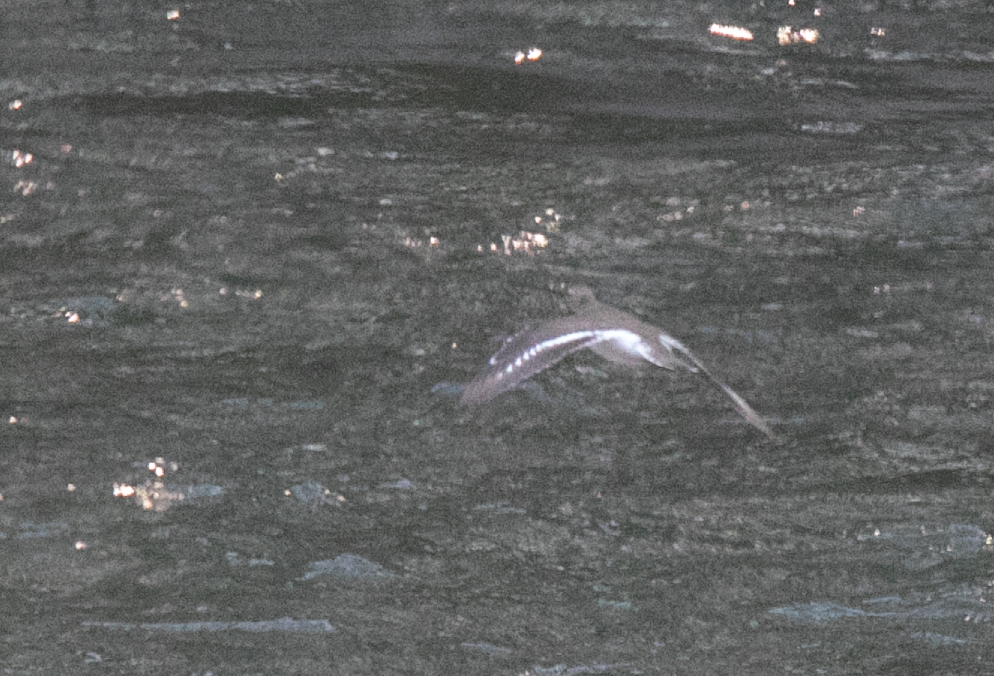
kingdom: Animalia
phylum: Chordata
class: Aves
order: Charadriiformes
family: Scolopacidae
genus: Actitis
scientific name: Actitis hypoleucos
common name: Common sandpiper
